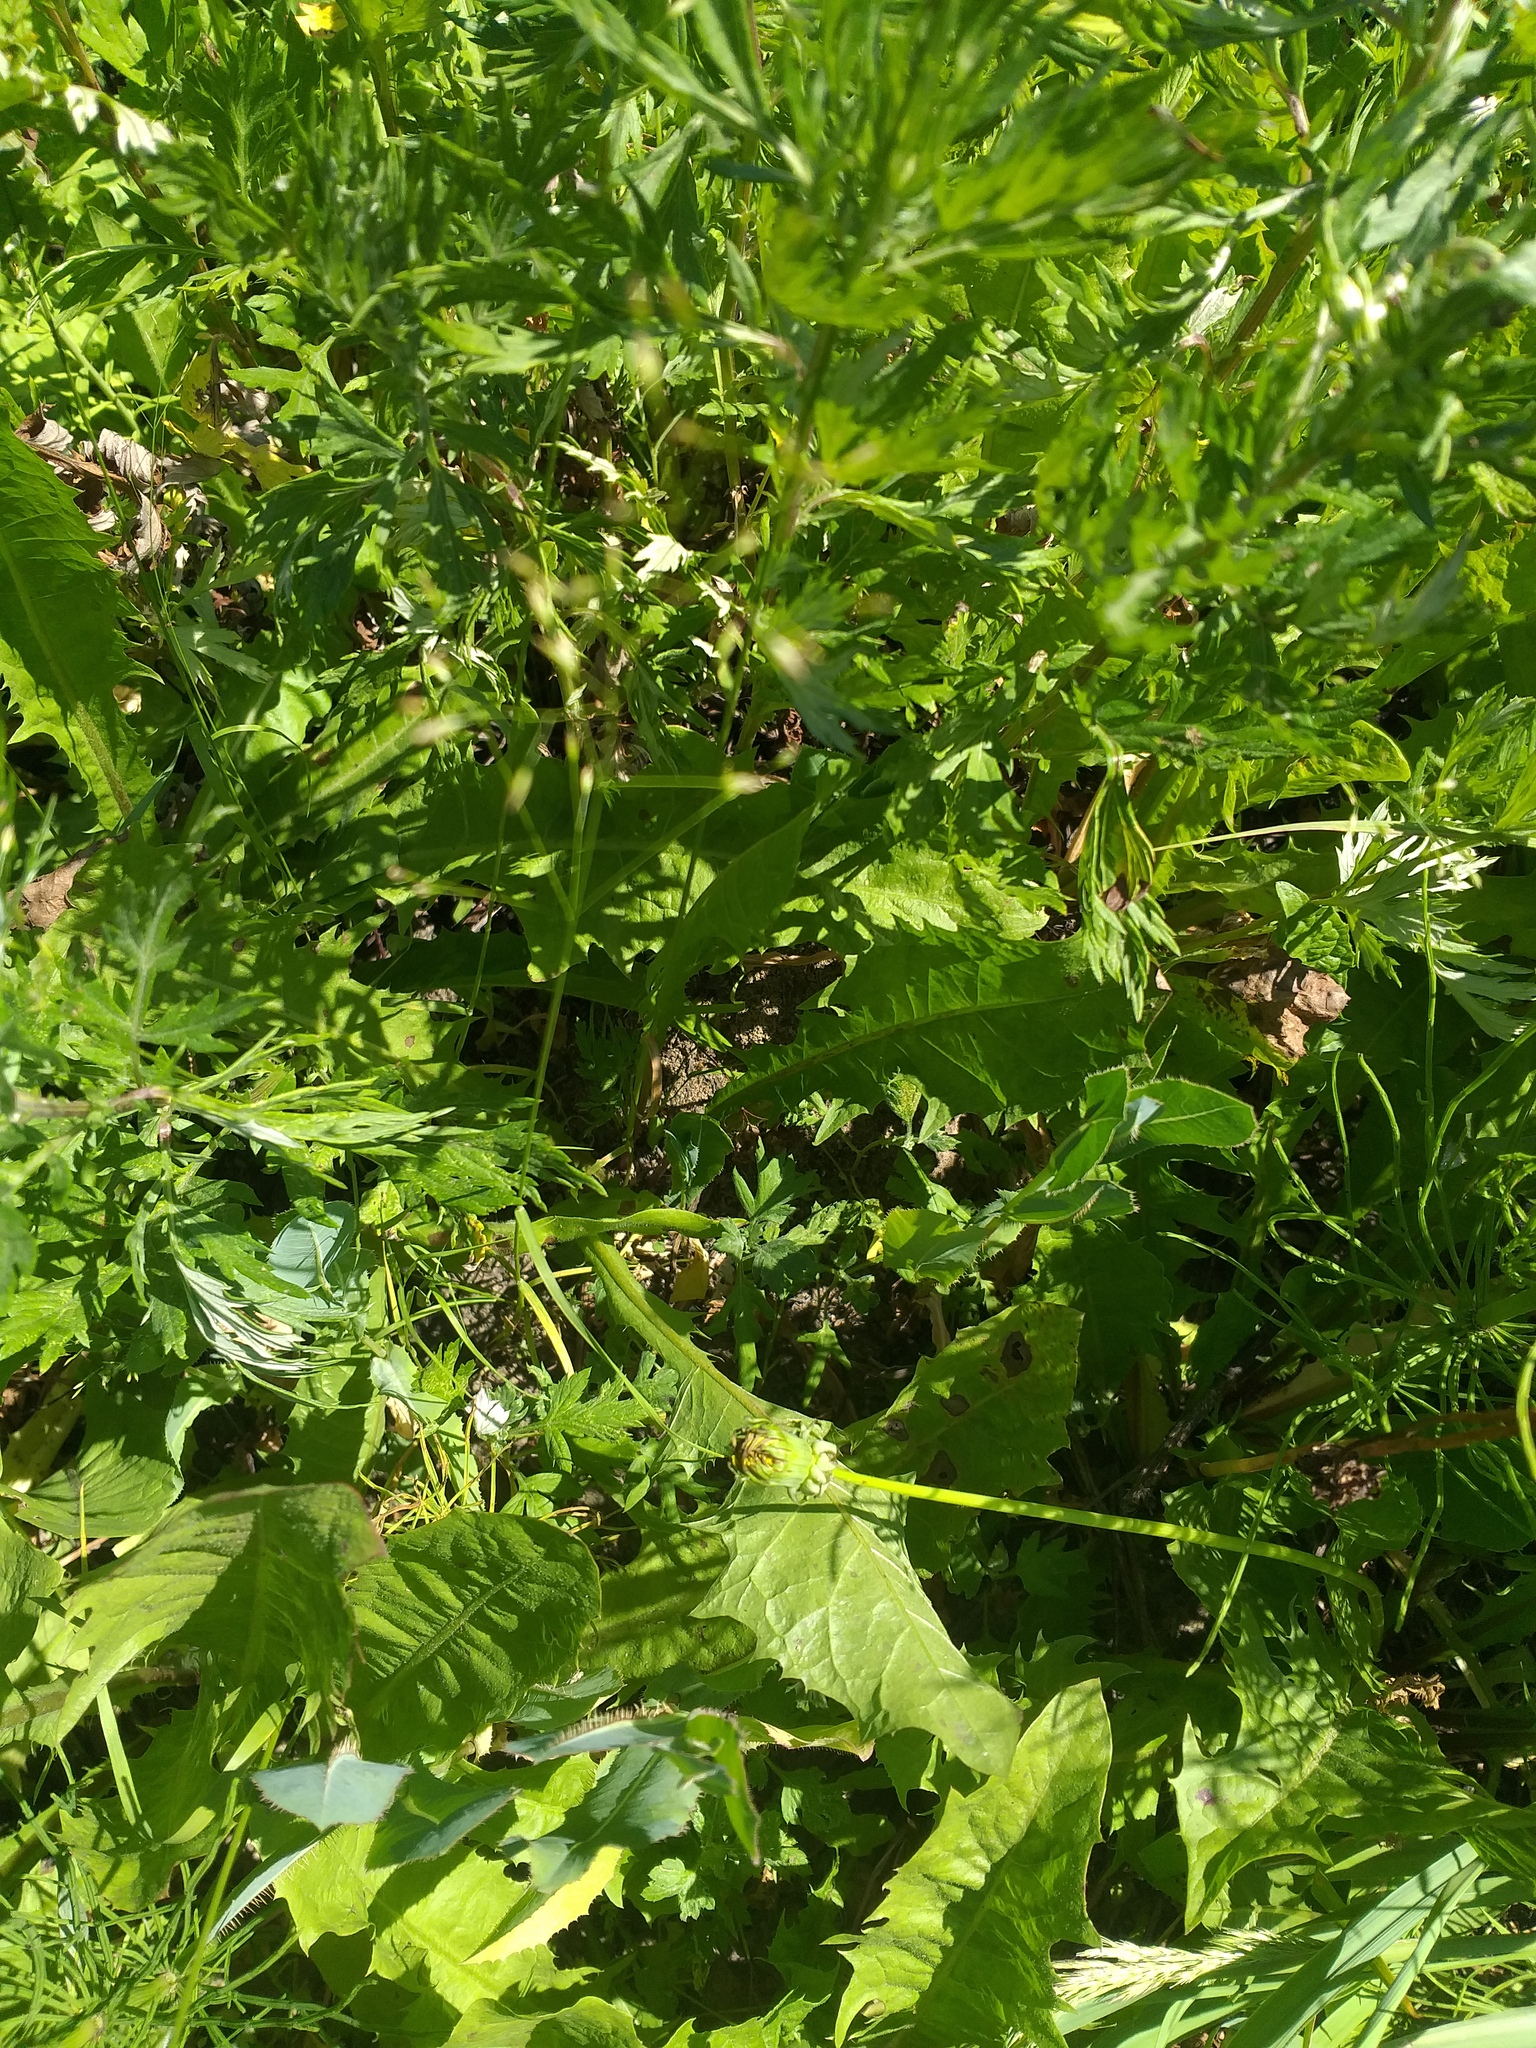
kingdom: Plantae
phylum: Tracheophyta
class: Magnoliopsida
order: Asterales
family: Asteraceae
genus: Taraxacum
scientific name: Taraxacum officinale
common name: Common dandelion
